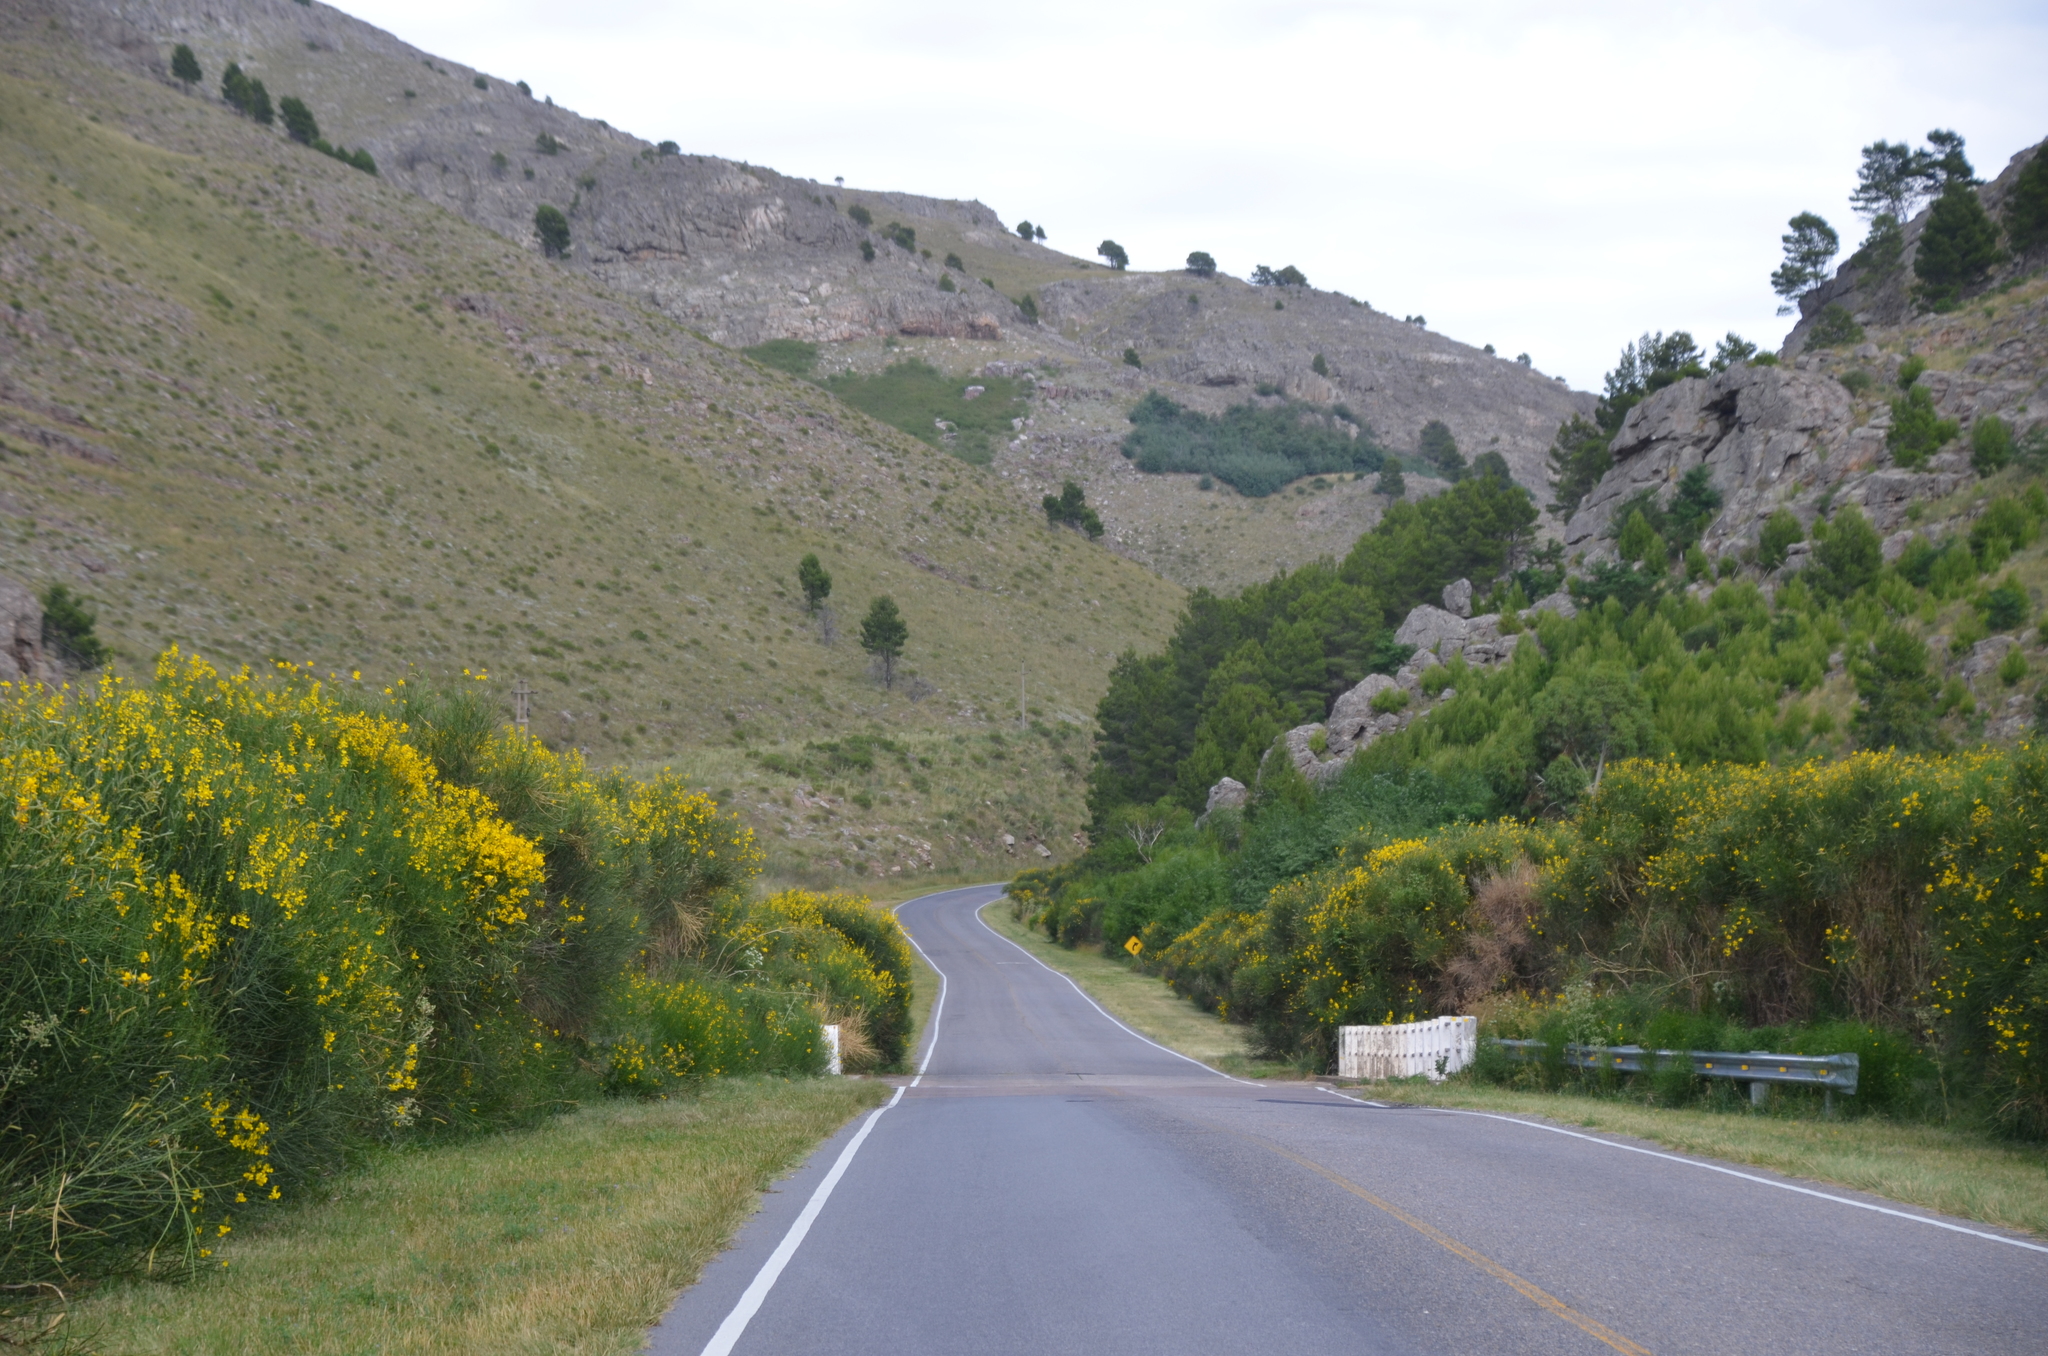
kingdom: Plantae
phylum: Tracheophyta
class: Magnoliopsida
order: Fabales
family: Fabaceae
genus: Spartium
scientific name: Spartium junceum
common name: Spanish broom
